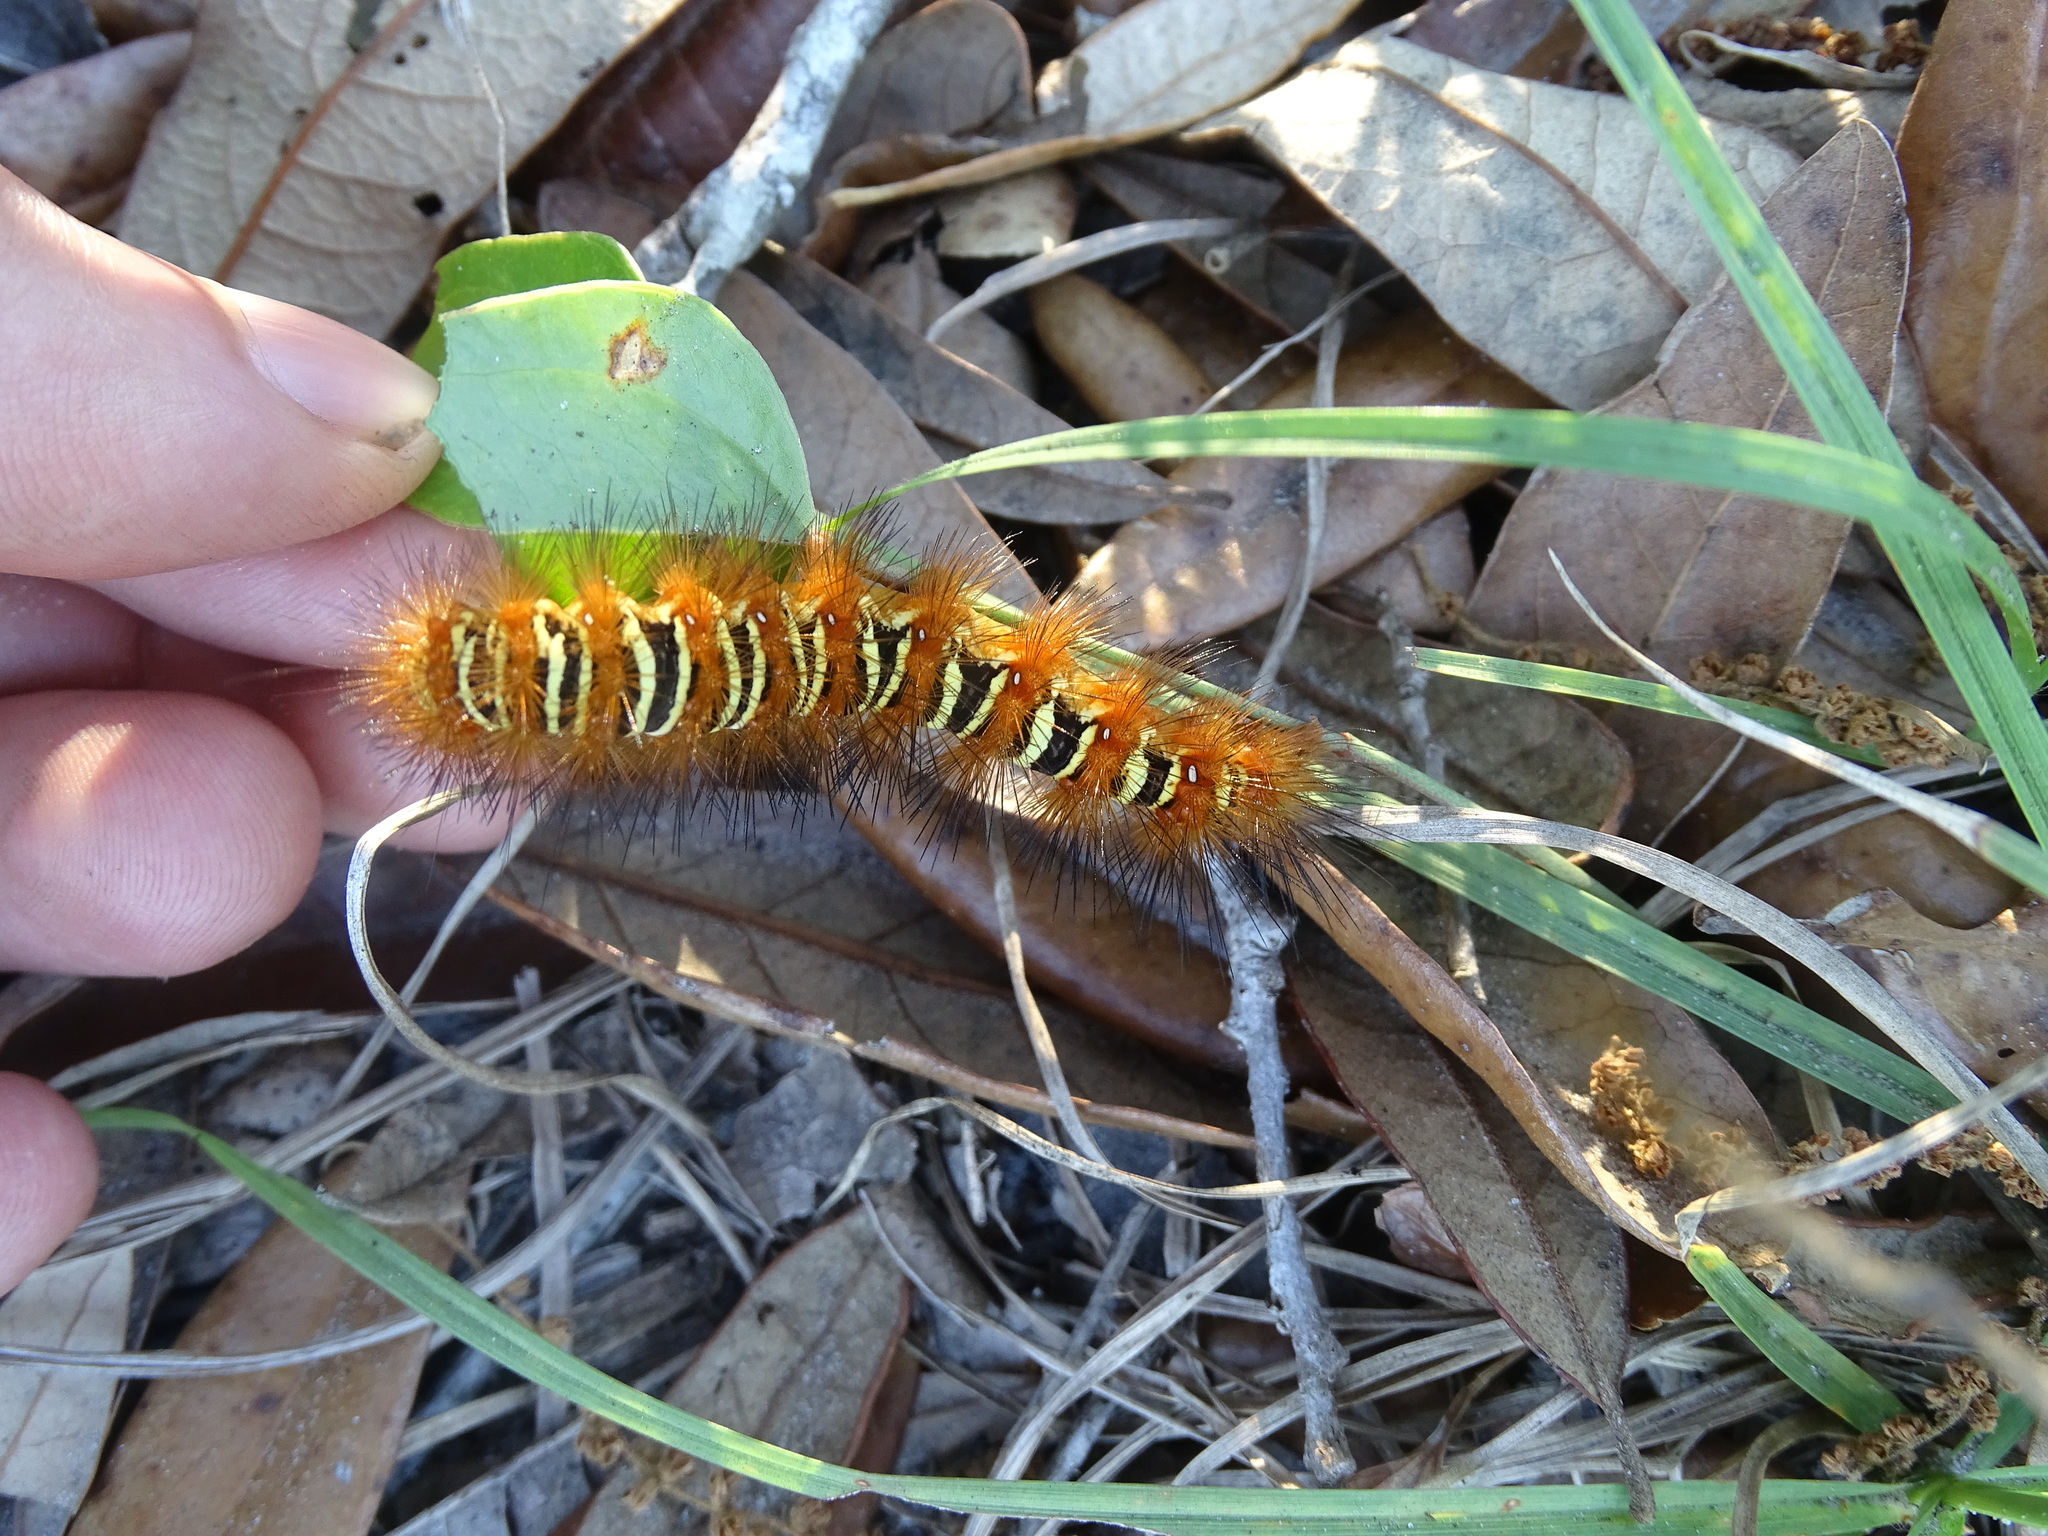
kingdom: Animalia
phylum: Arthropoda
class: Insecta
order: Lepidoptera
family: Erebidae
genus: Seirarctia
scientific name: Seirarctia echo
